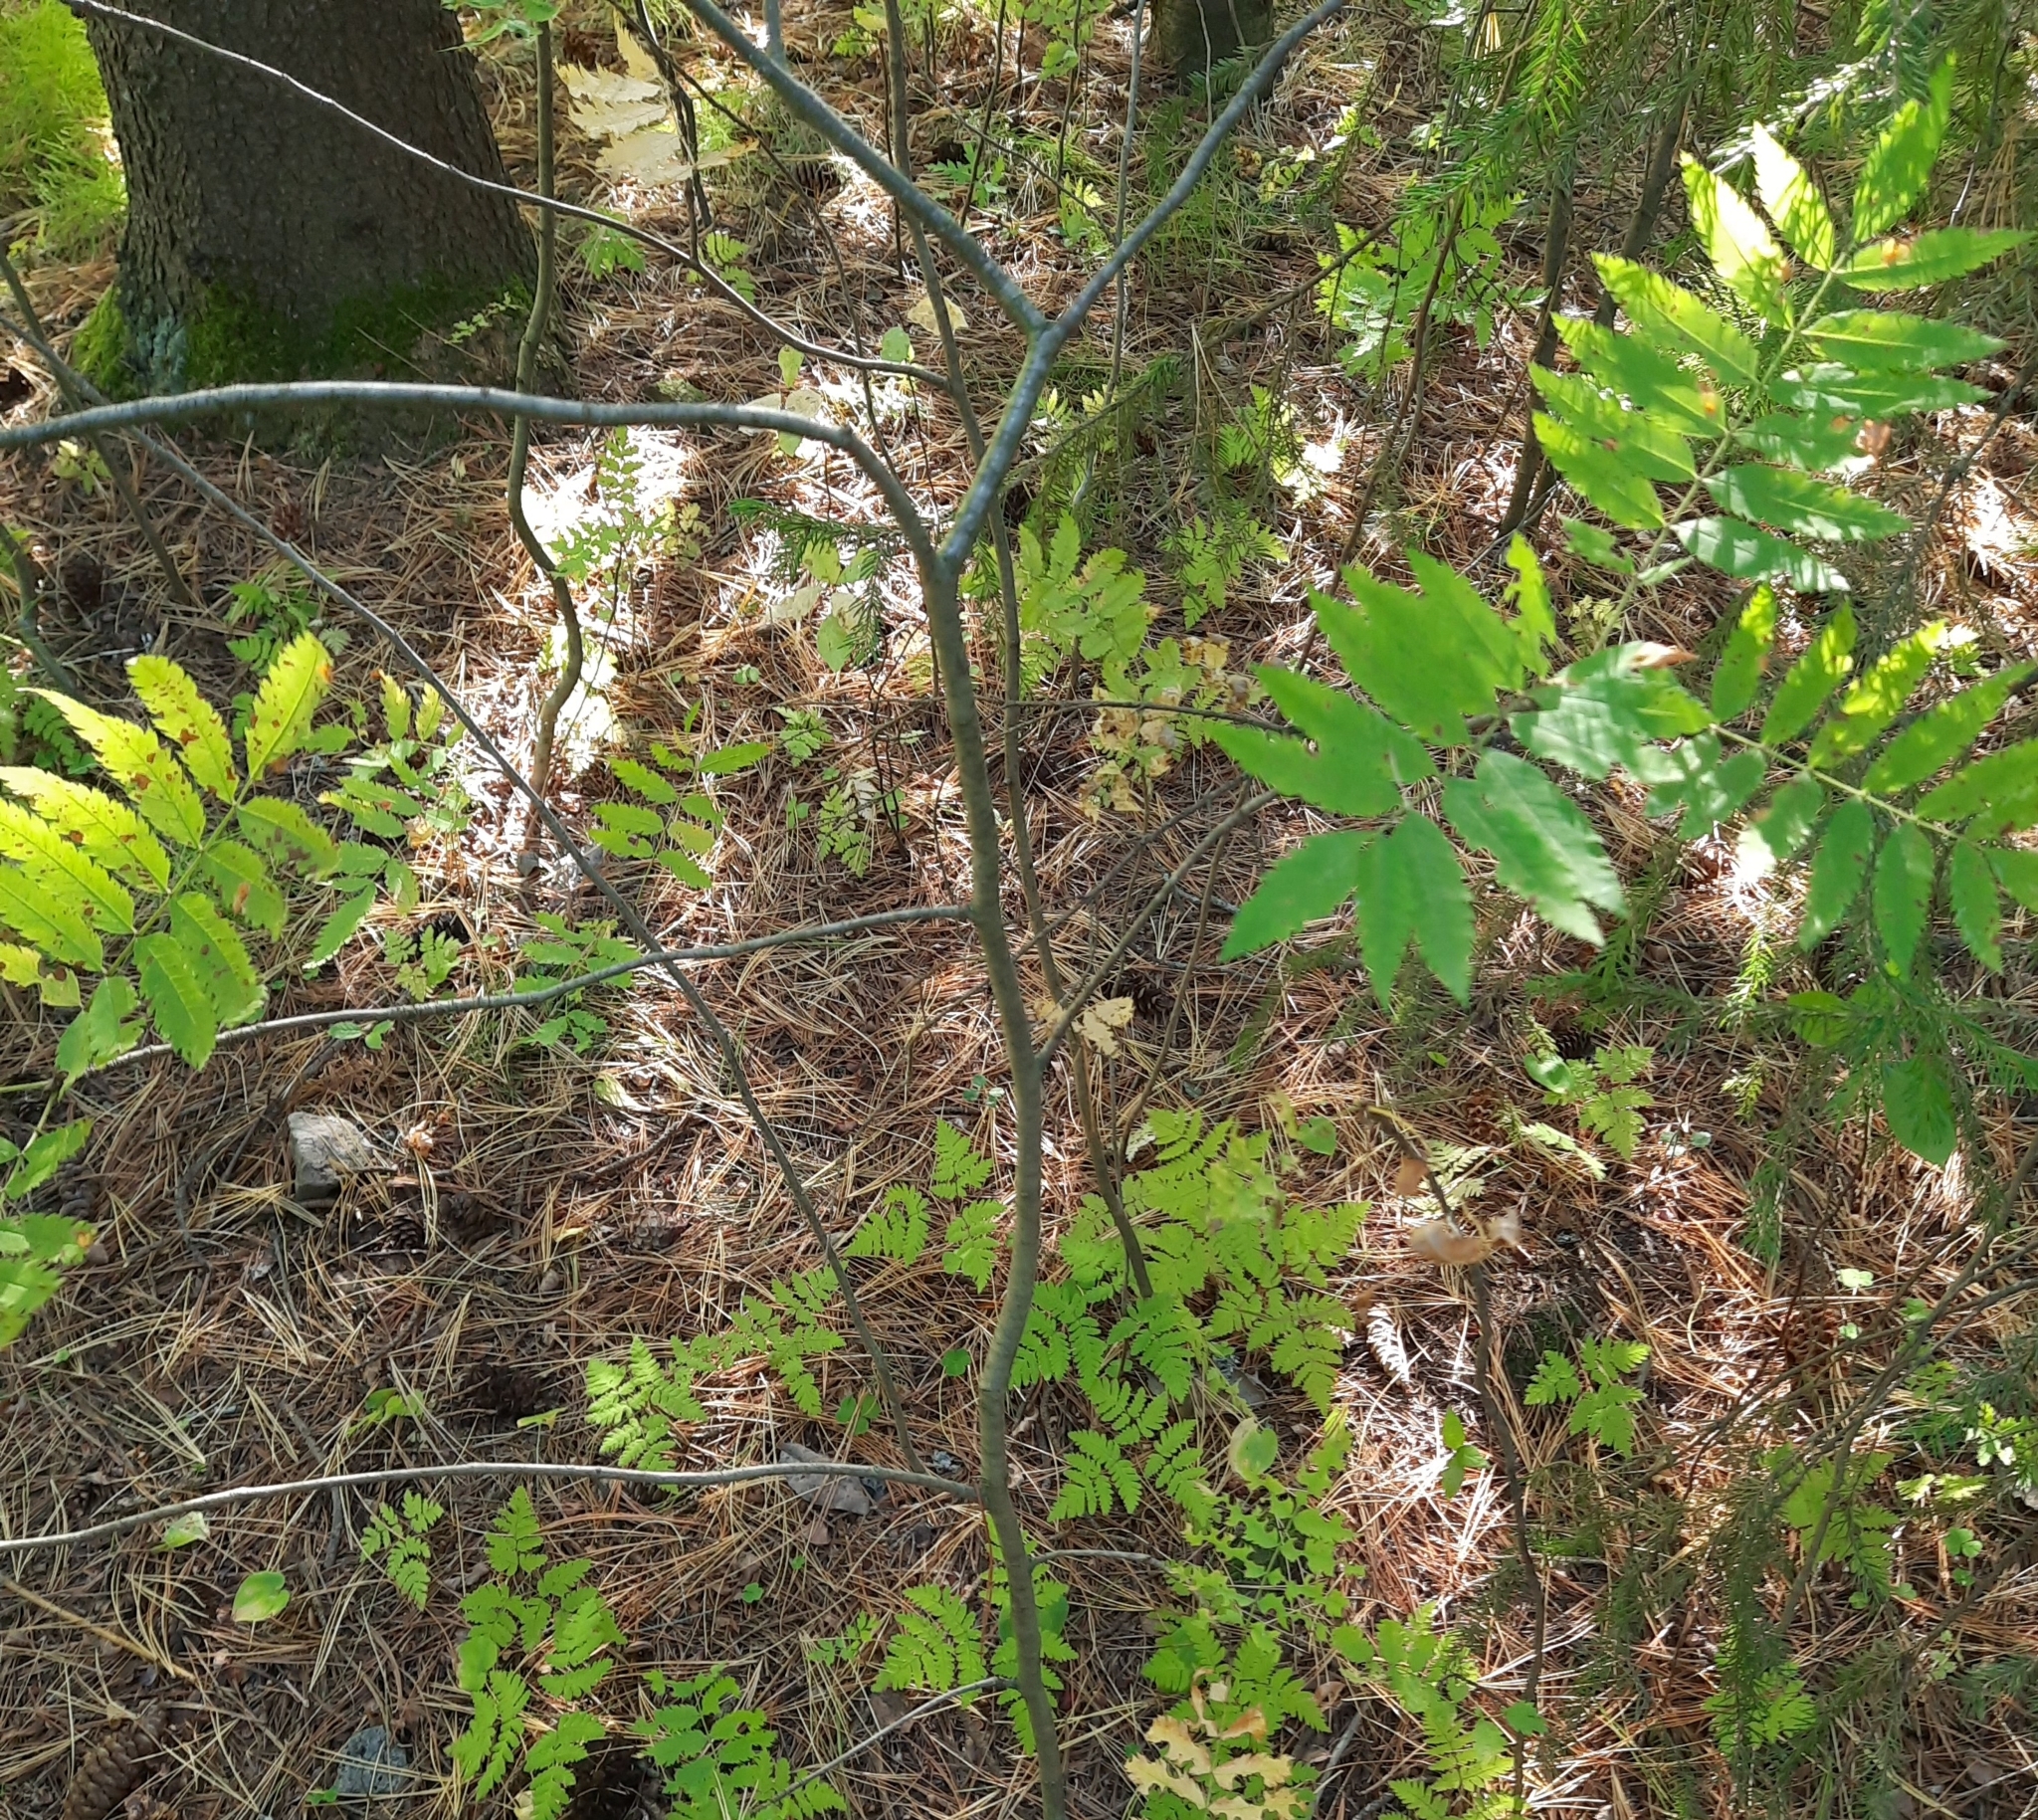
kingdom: Plantae
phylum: Tracheophyta
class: Magnoliopsida
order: Rosales
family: Rosaceae
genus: Sorbus
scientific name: Sorbus aucuparia
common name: Rowan
